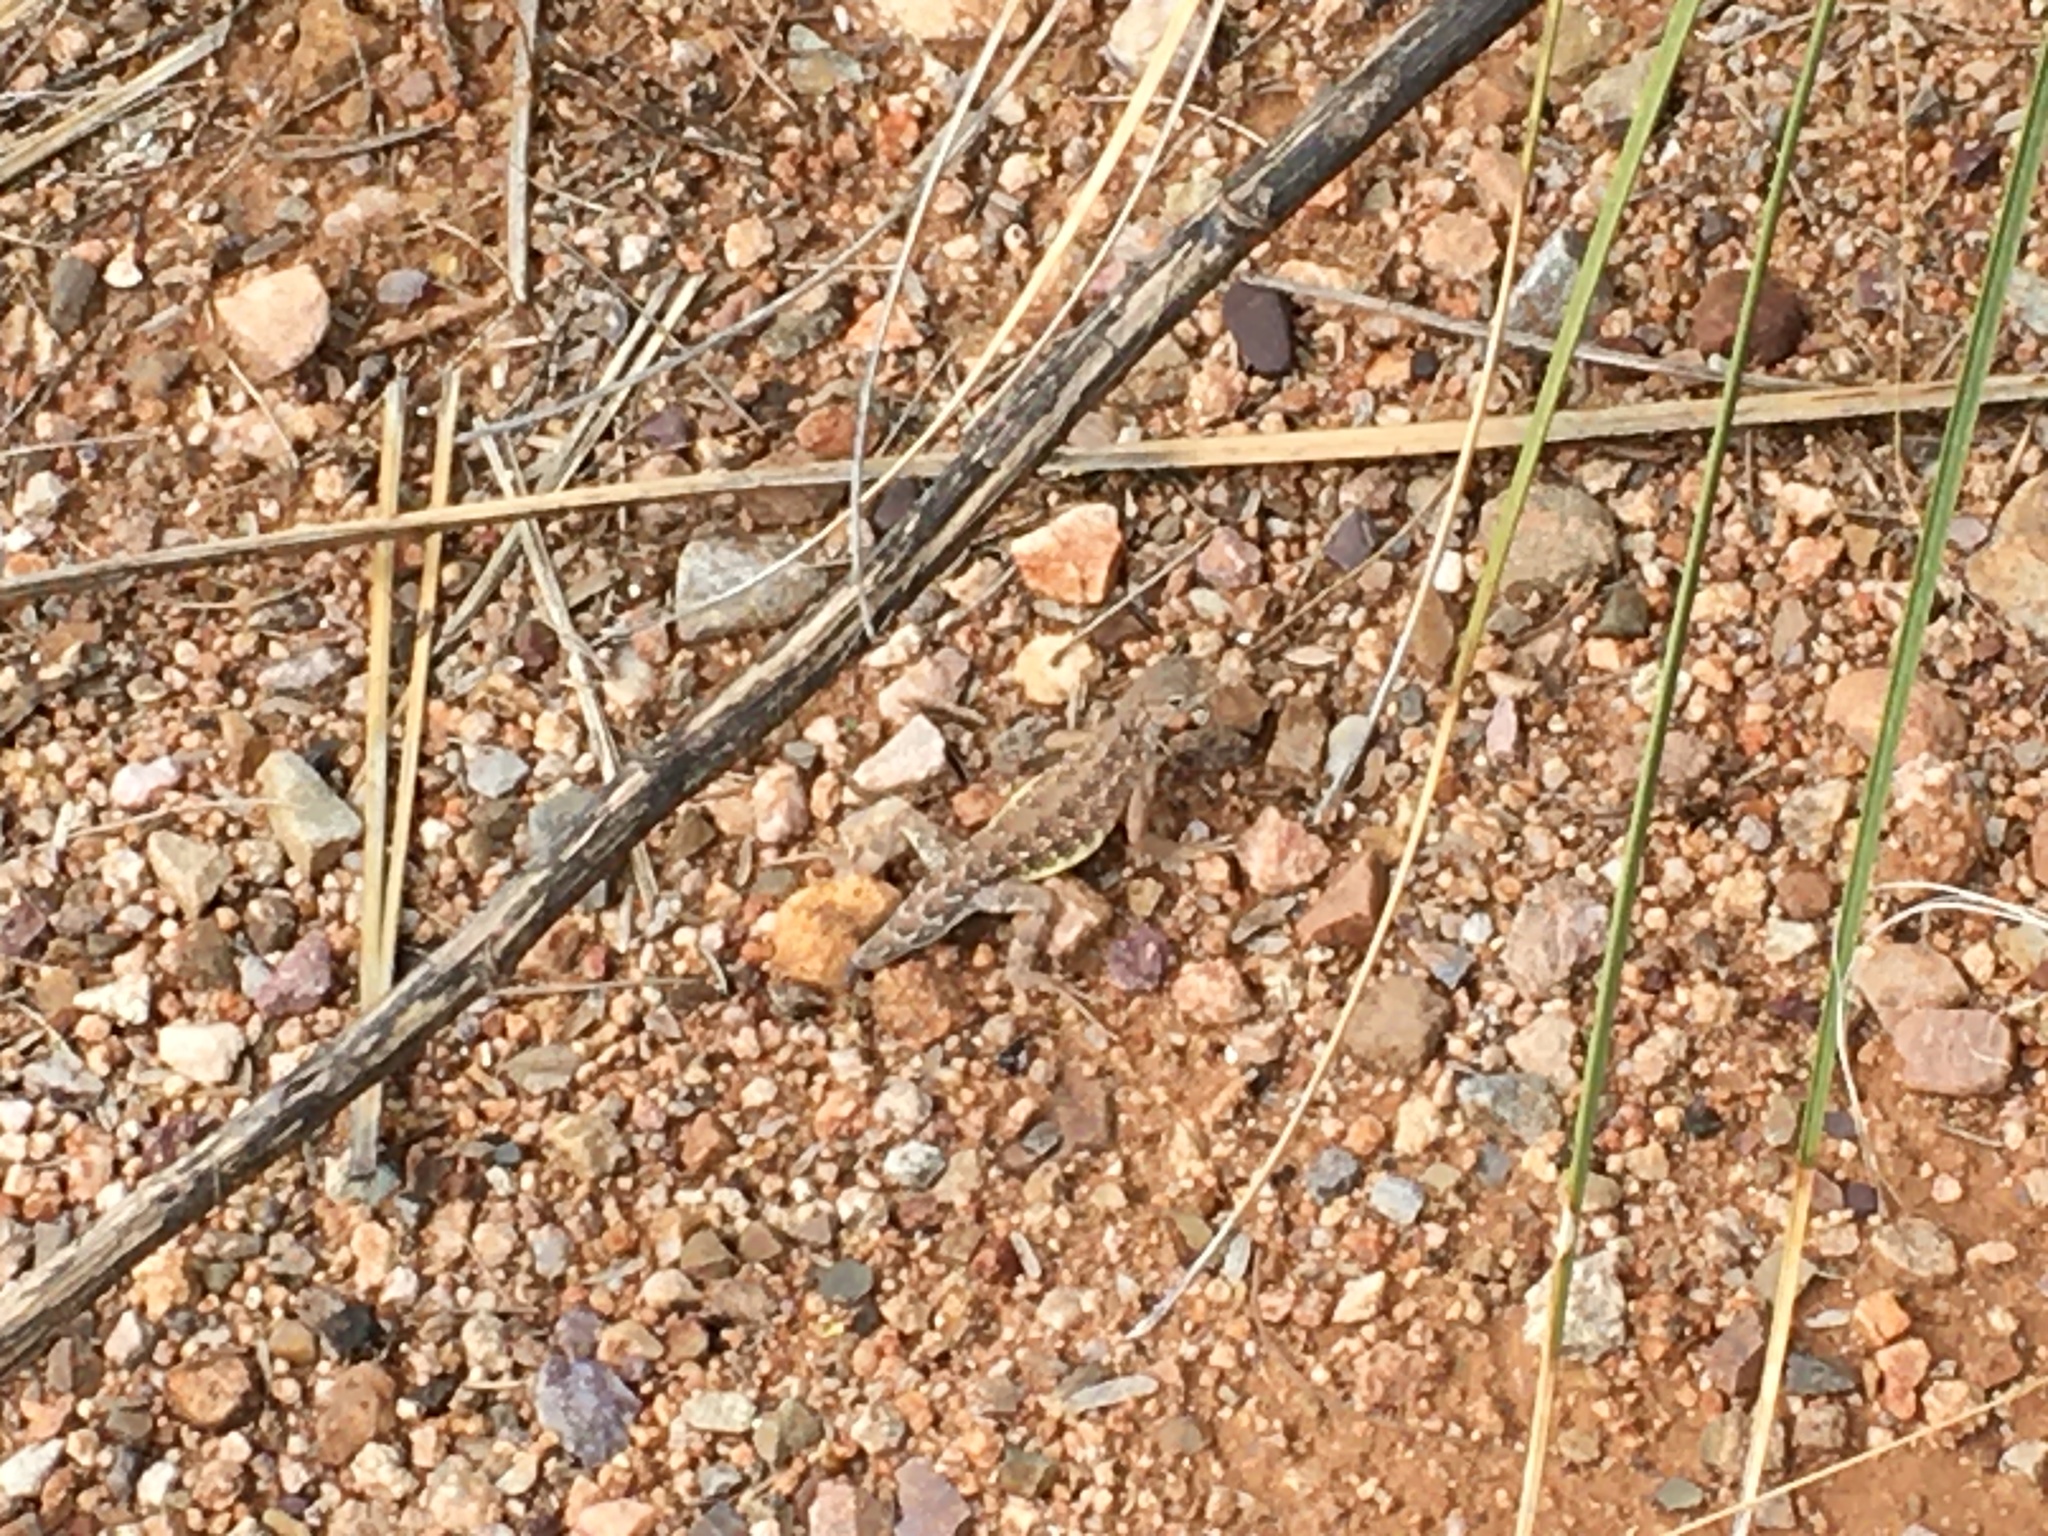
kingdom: Animalia
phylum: Chordata
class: Squamata
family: Phrynosomatidae
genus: Holbrookia
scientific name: Holbrookia
